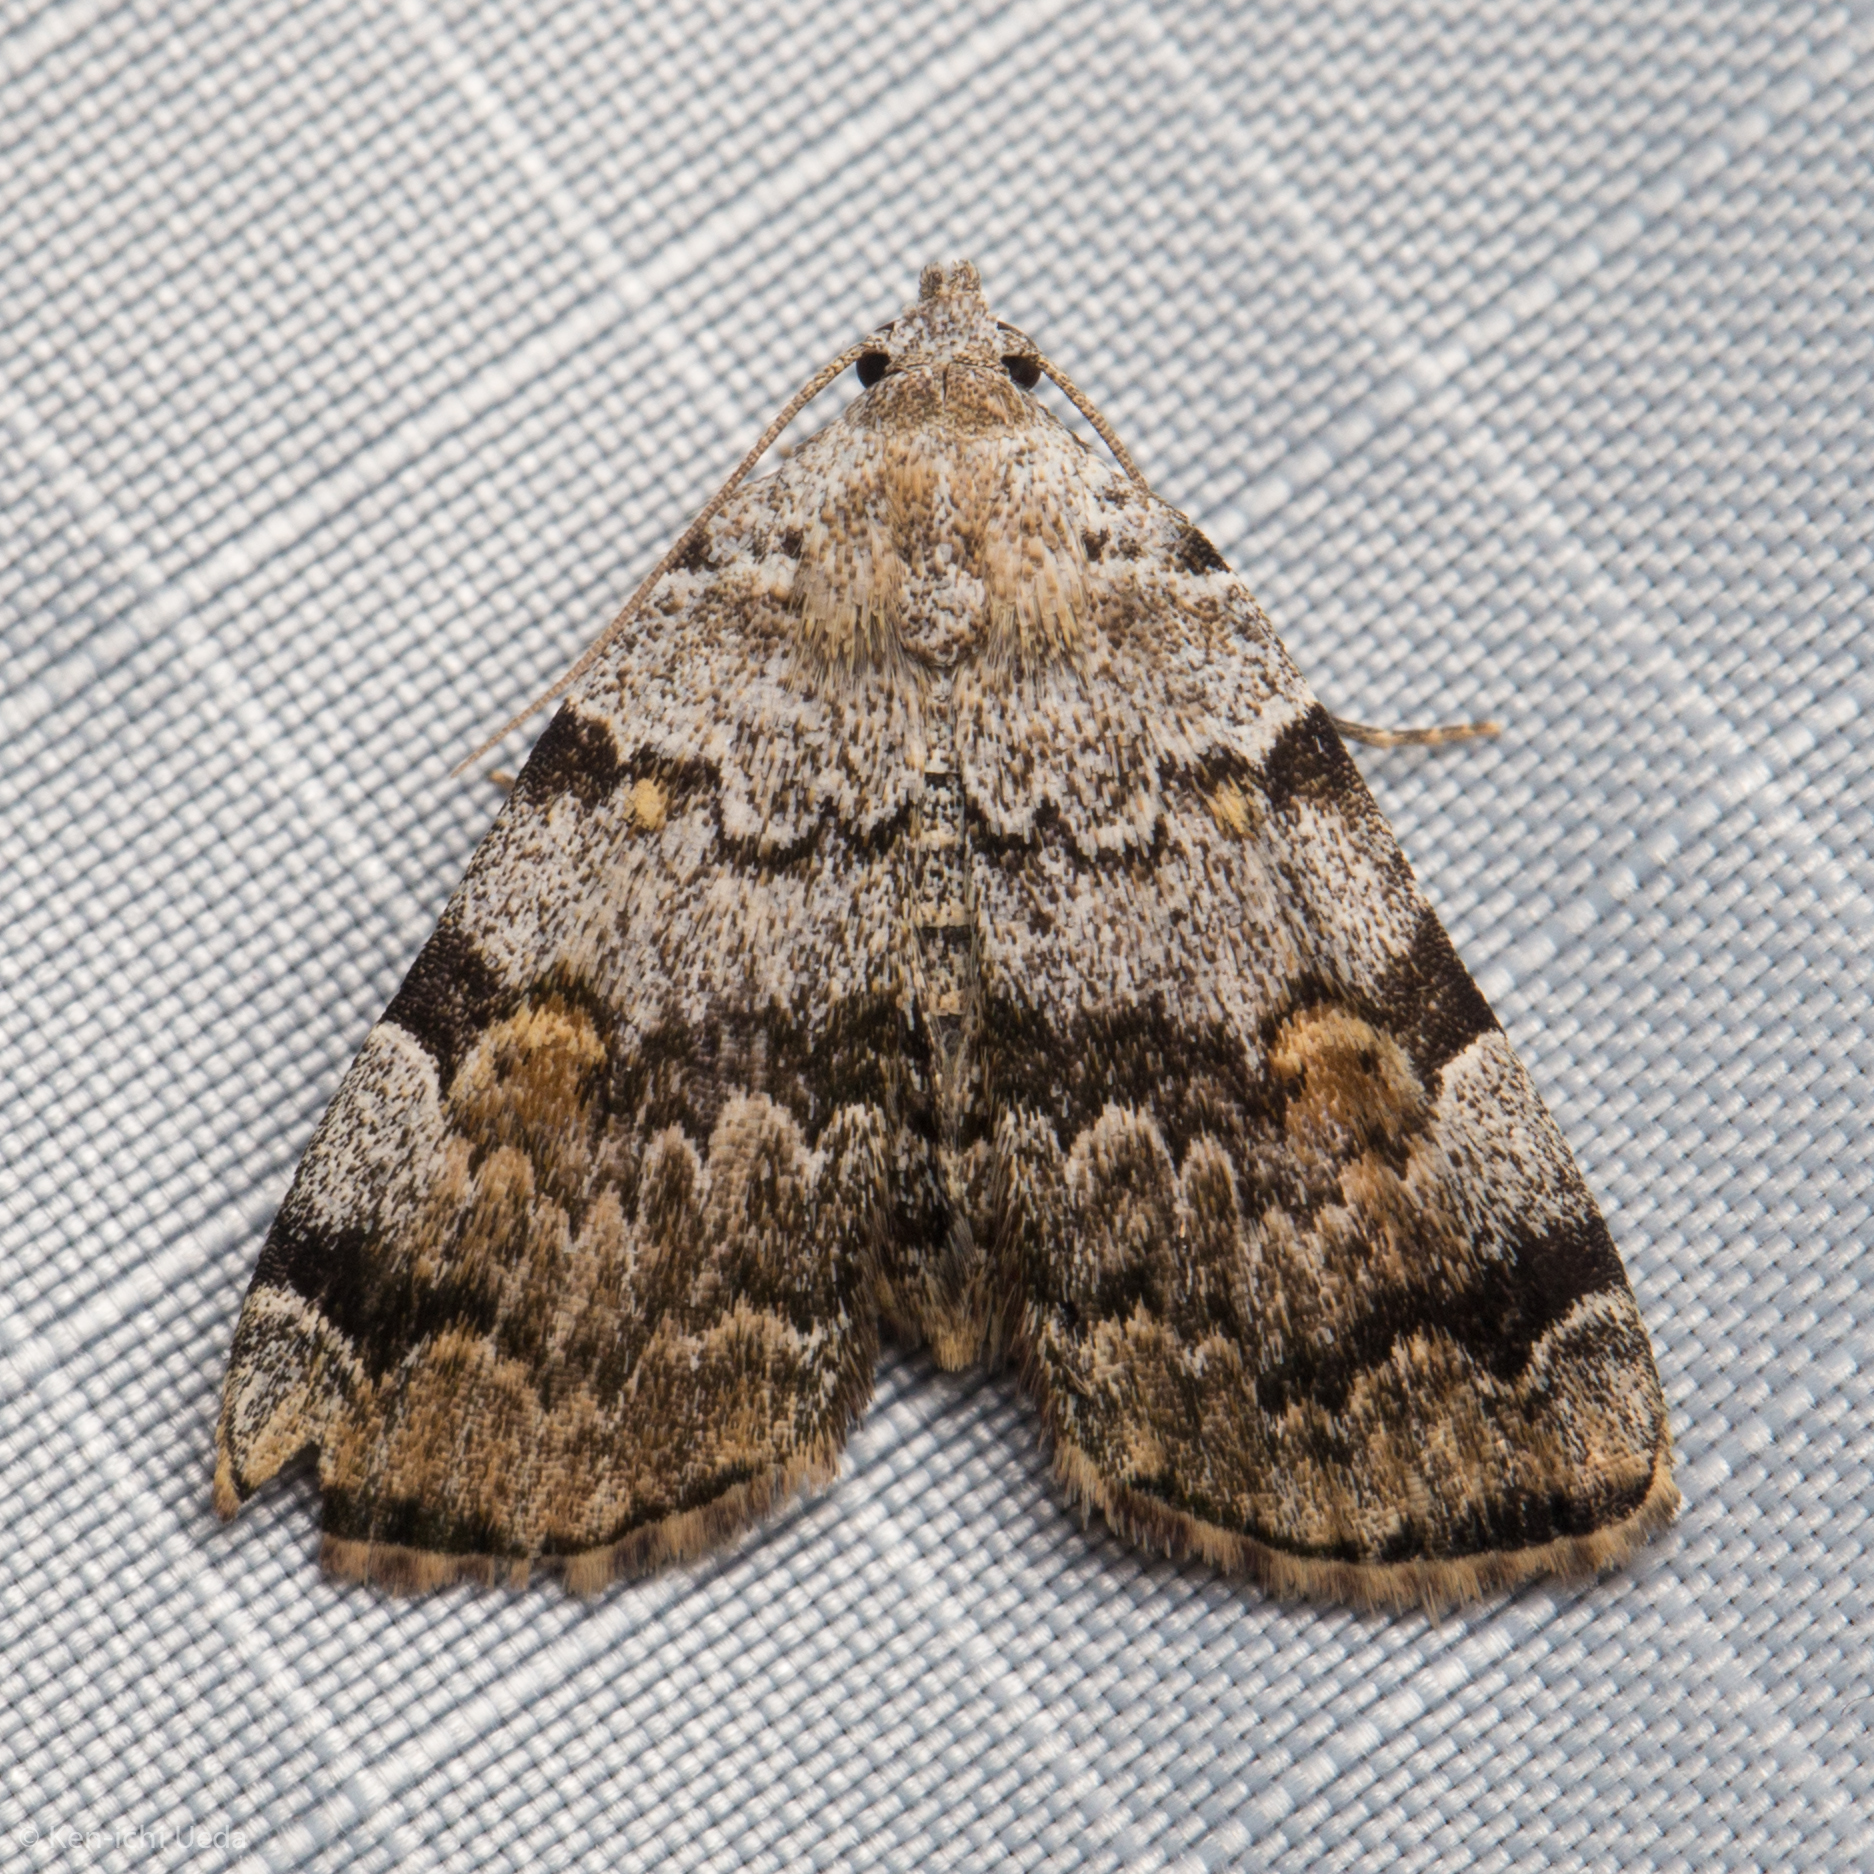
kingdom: Animalia
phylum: Arthropoda
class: Insecta
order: Lepidoptera
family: Erebidae
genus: Idia
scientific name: Idia americalis
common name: American idia moth
